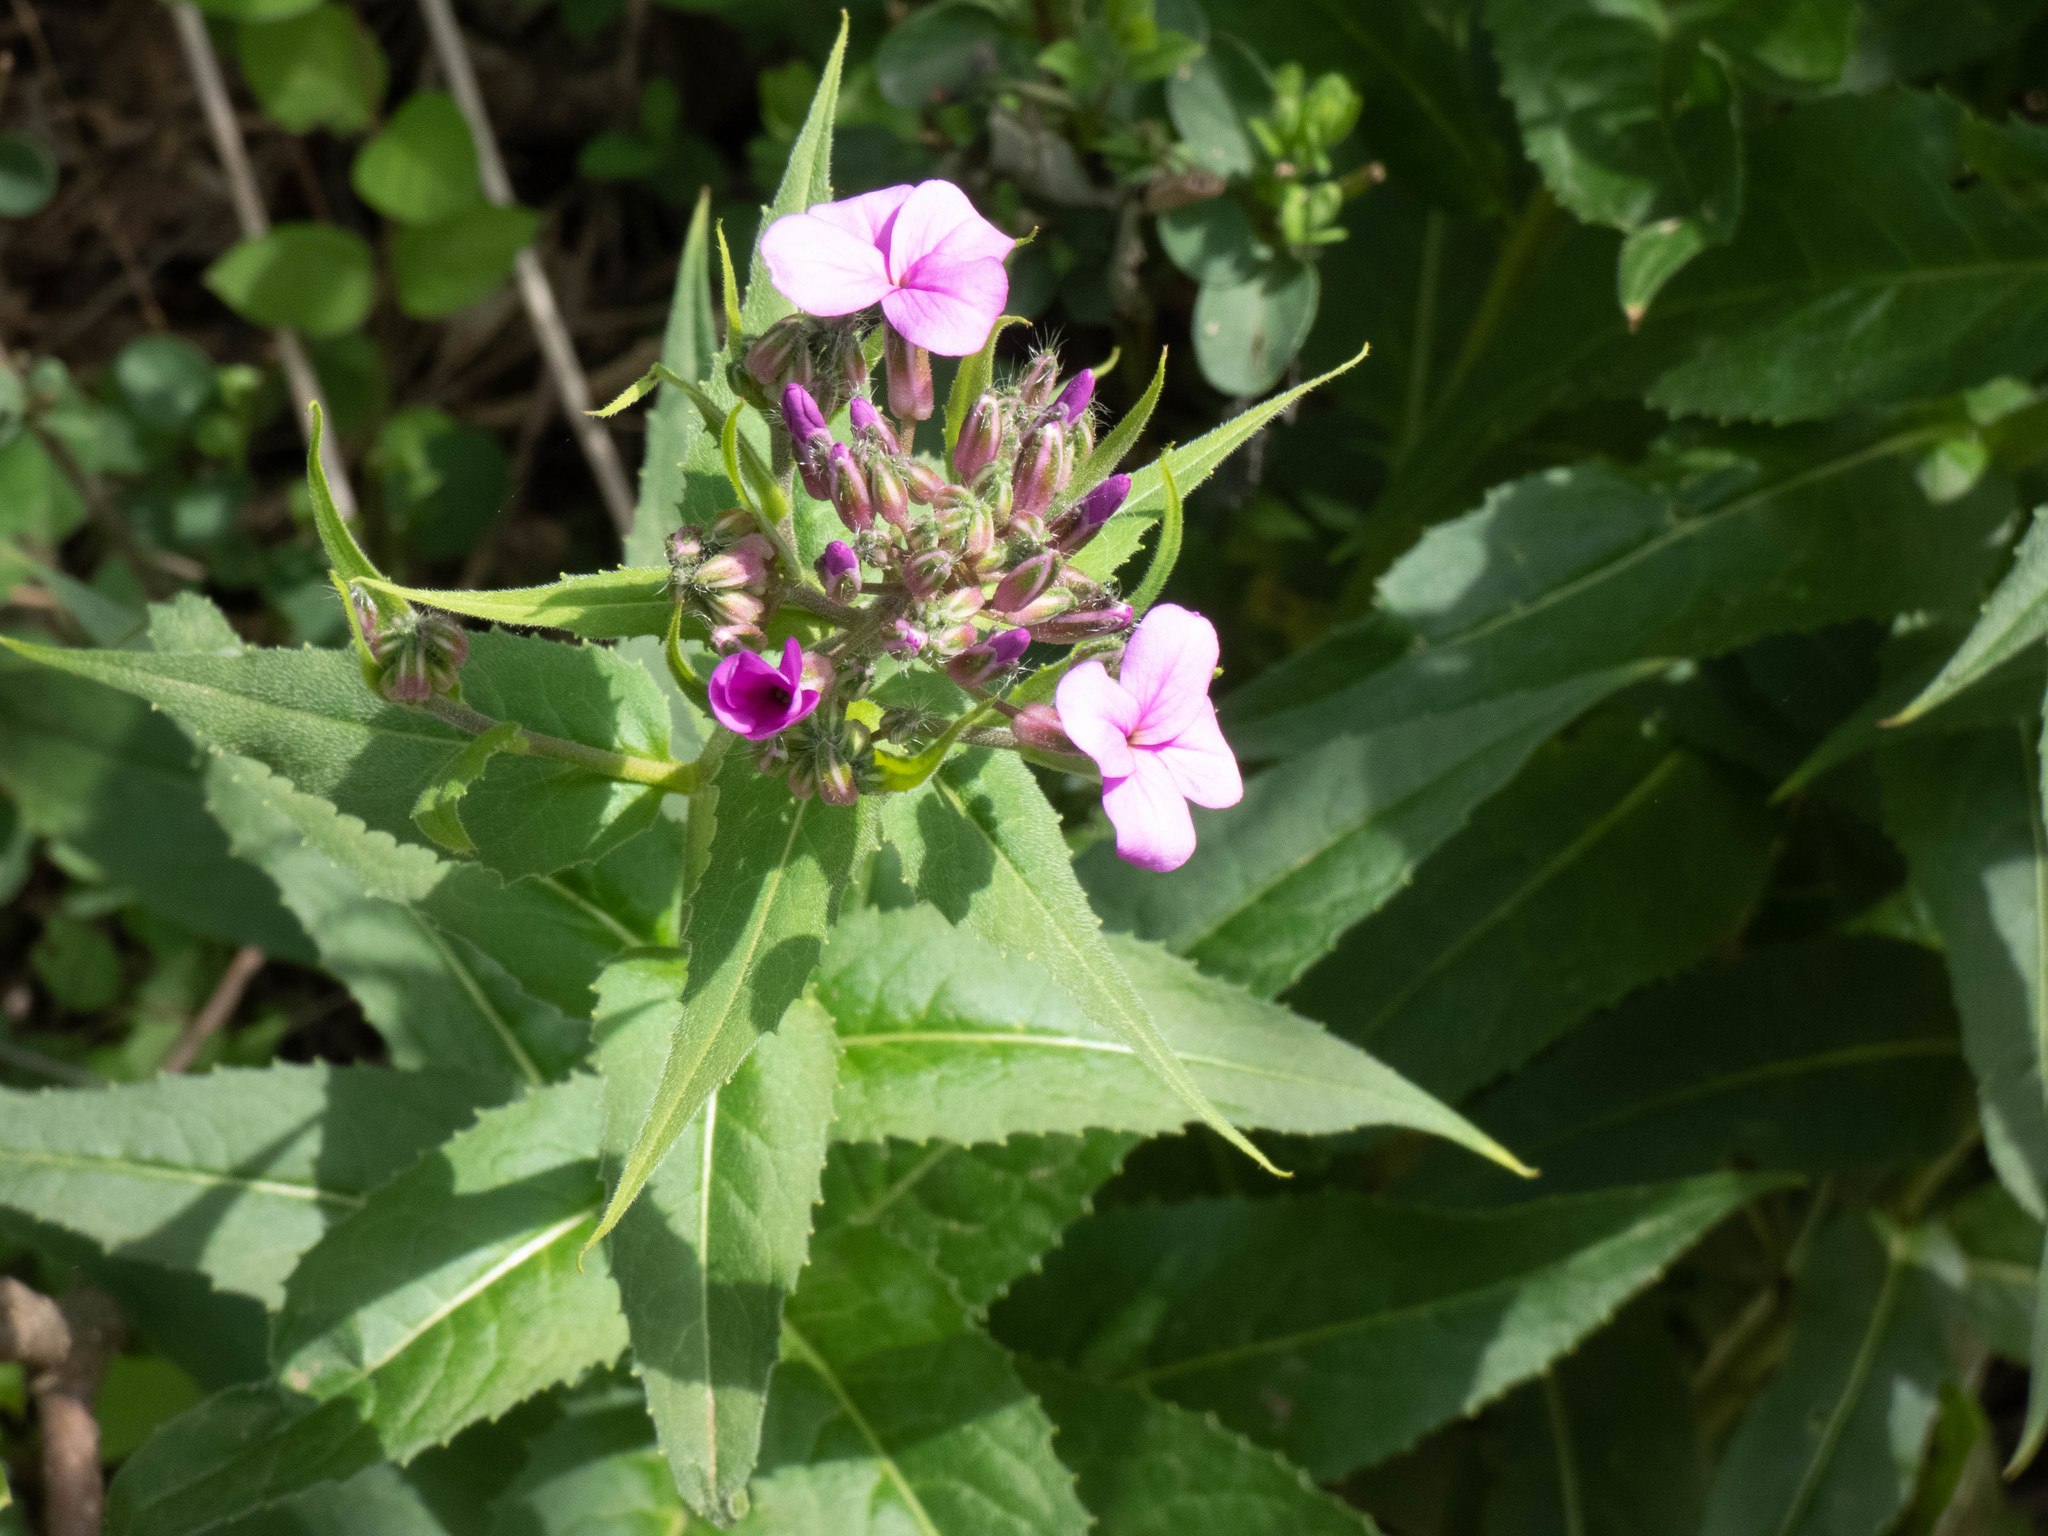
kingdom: Plantae
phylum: Tracheophyta
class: Magnoliopsida
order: Brassicales
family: Brassicaceae
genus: Hesperis
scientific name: Hesperis matronalis
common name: Dame's-violet
